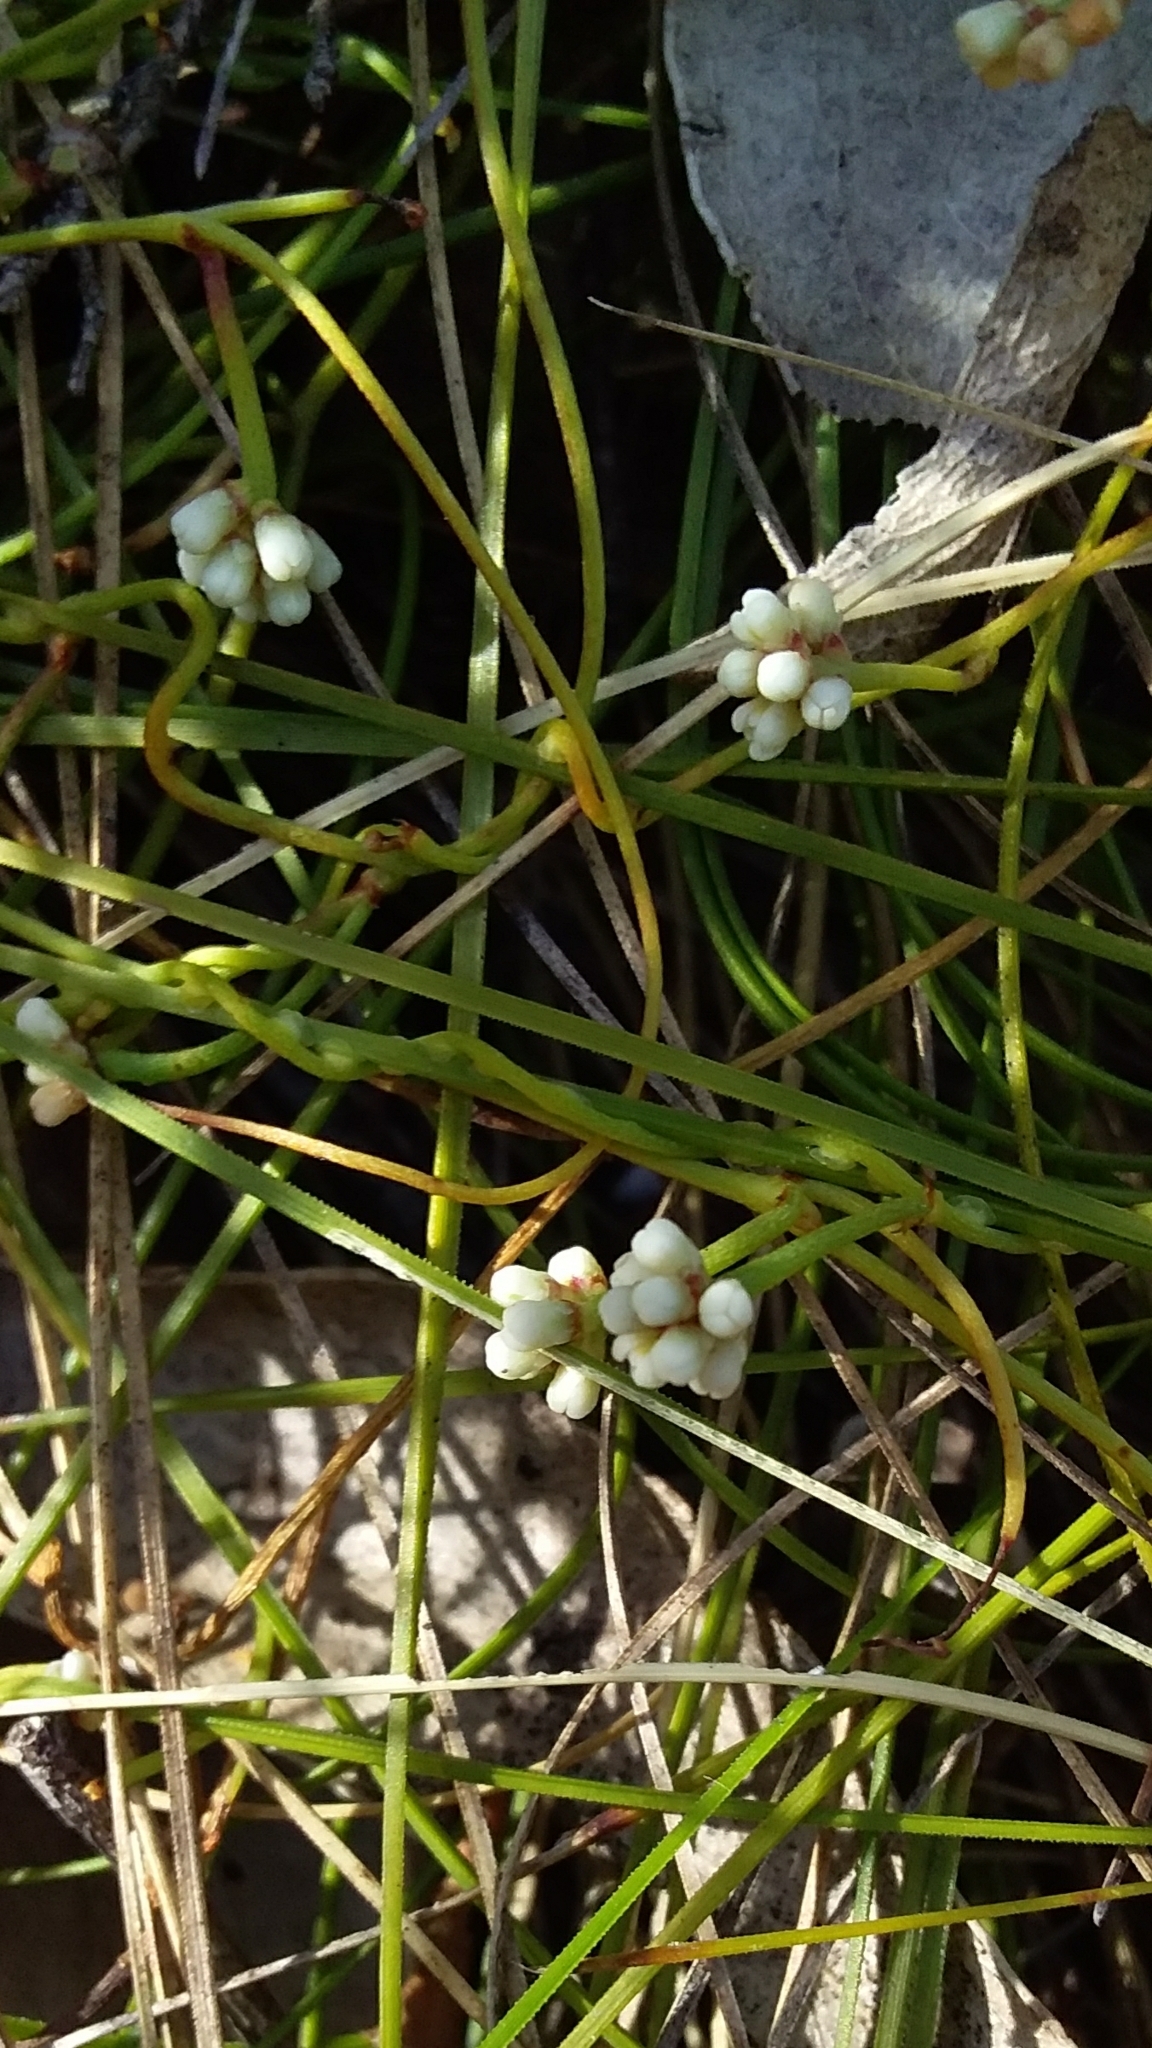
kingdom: Plantae
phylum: Tracheophyta
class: Magnoliopsida
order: Laurales
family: Lauraceae
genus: Cassytha
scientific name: Cassytha glabella
